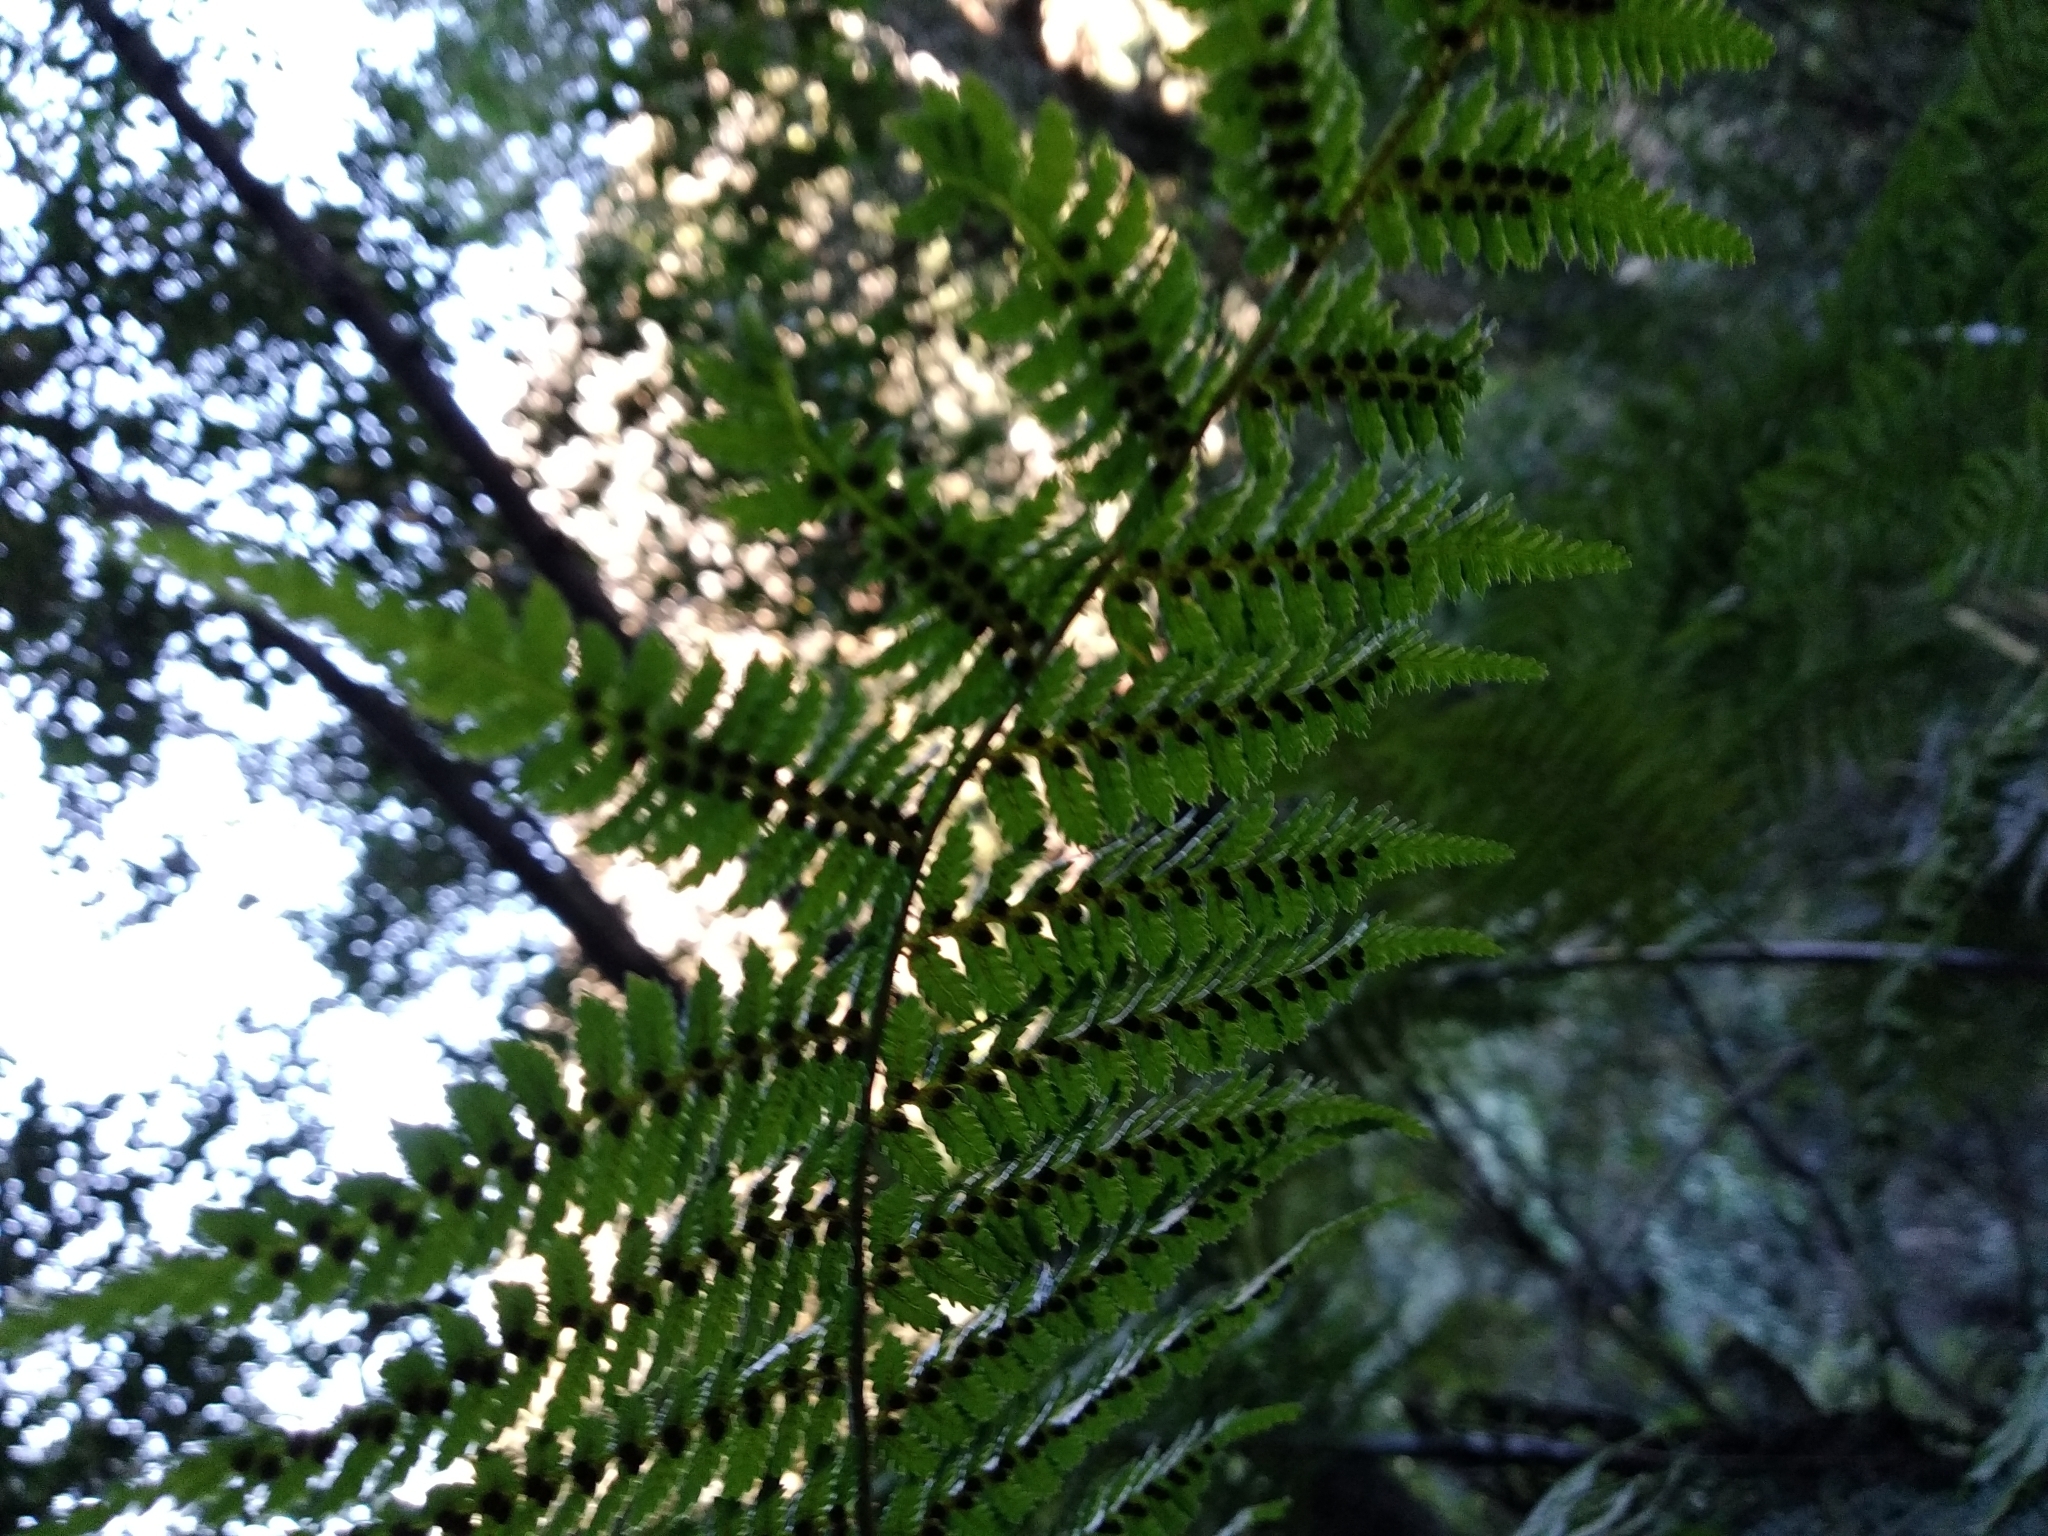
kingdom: Plantae
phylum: Tracheophyta
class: Polypodiopsida
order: Cyatheales
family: Cyatheaceae
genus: Gymnosphaera
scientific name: Gymnosphaera capensis
